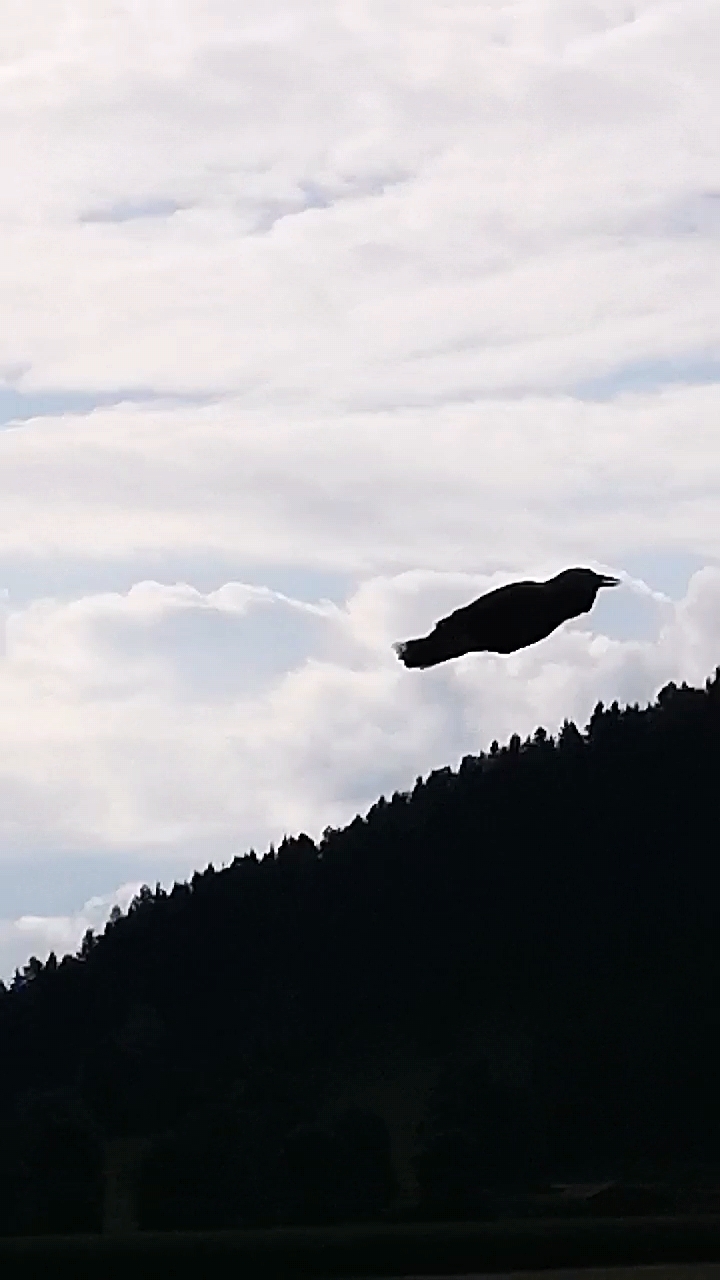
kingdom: Animalia
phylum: Chordata
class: Aves
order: Passeriformes
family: Corvidae
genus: Nucifraga
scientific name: Nucifraga caryocatactes
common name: Spotted nutcracker
